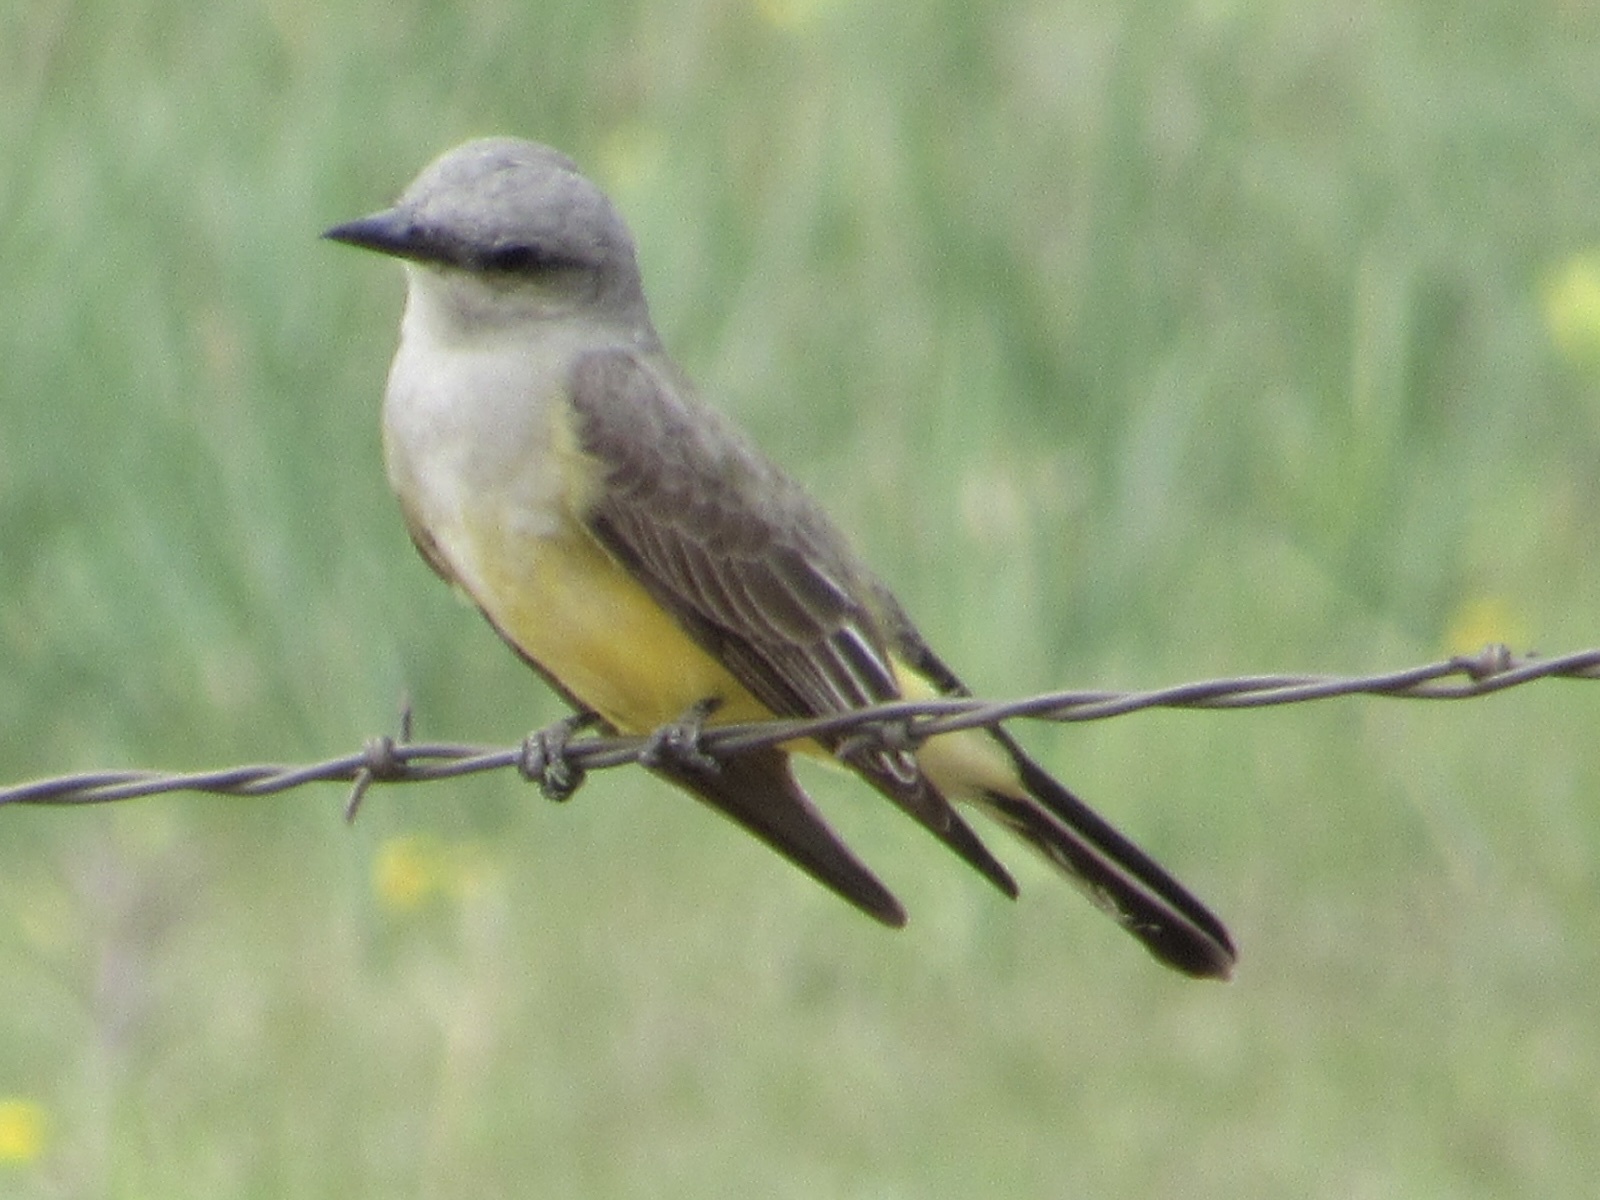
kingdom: Animalia
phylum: Chordata
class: Aves
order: Passeriformes
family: Tyrannidae
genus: Tyrannus
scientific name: Tyrannus verticalis
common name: Western kingbird
